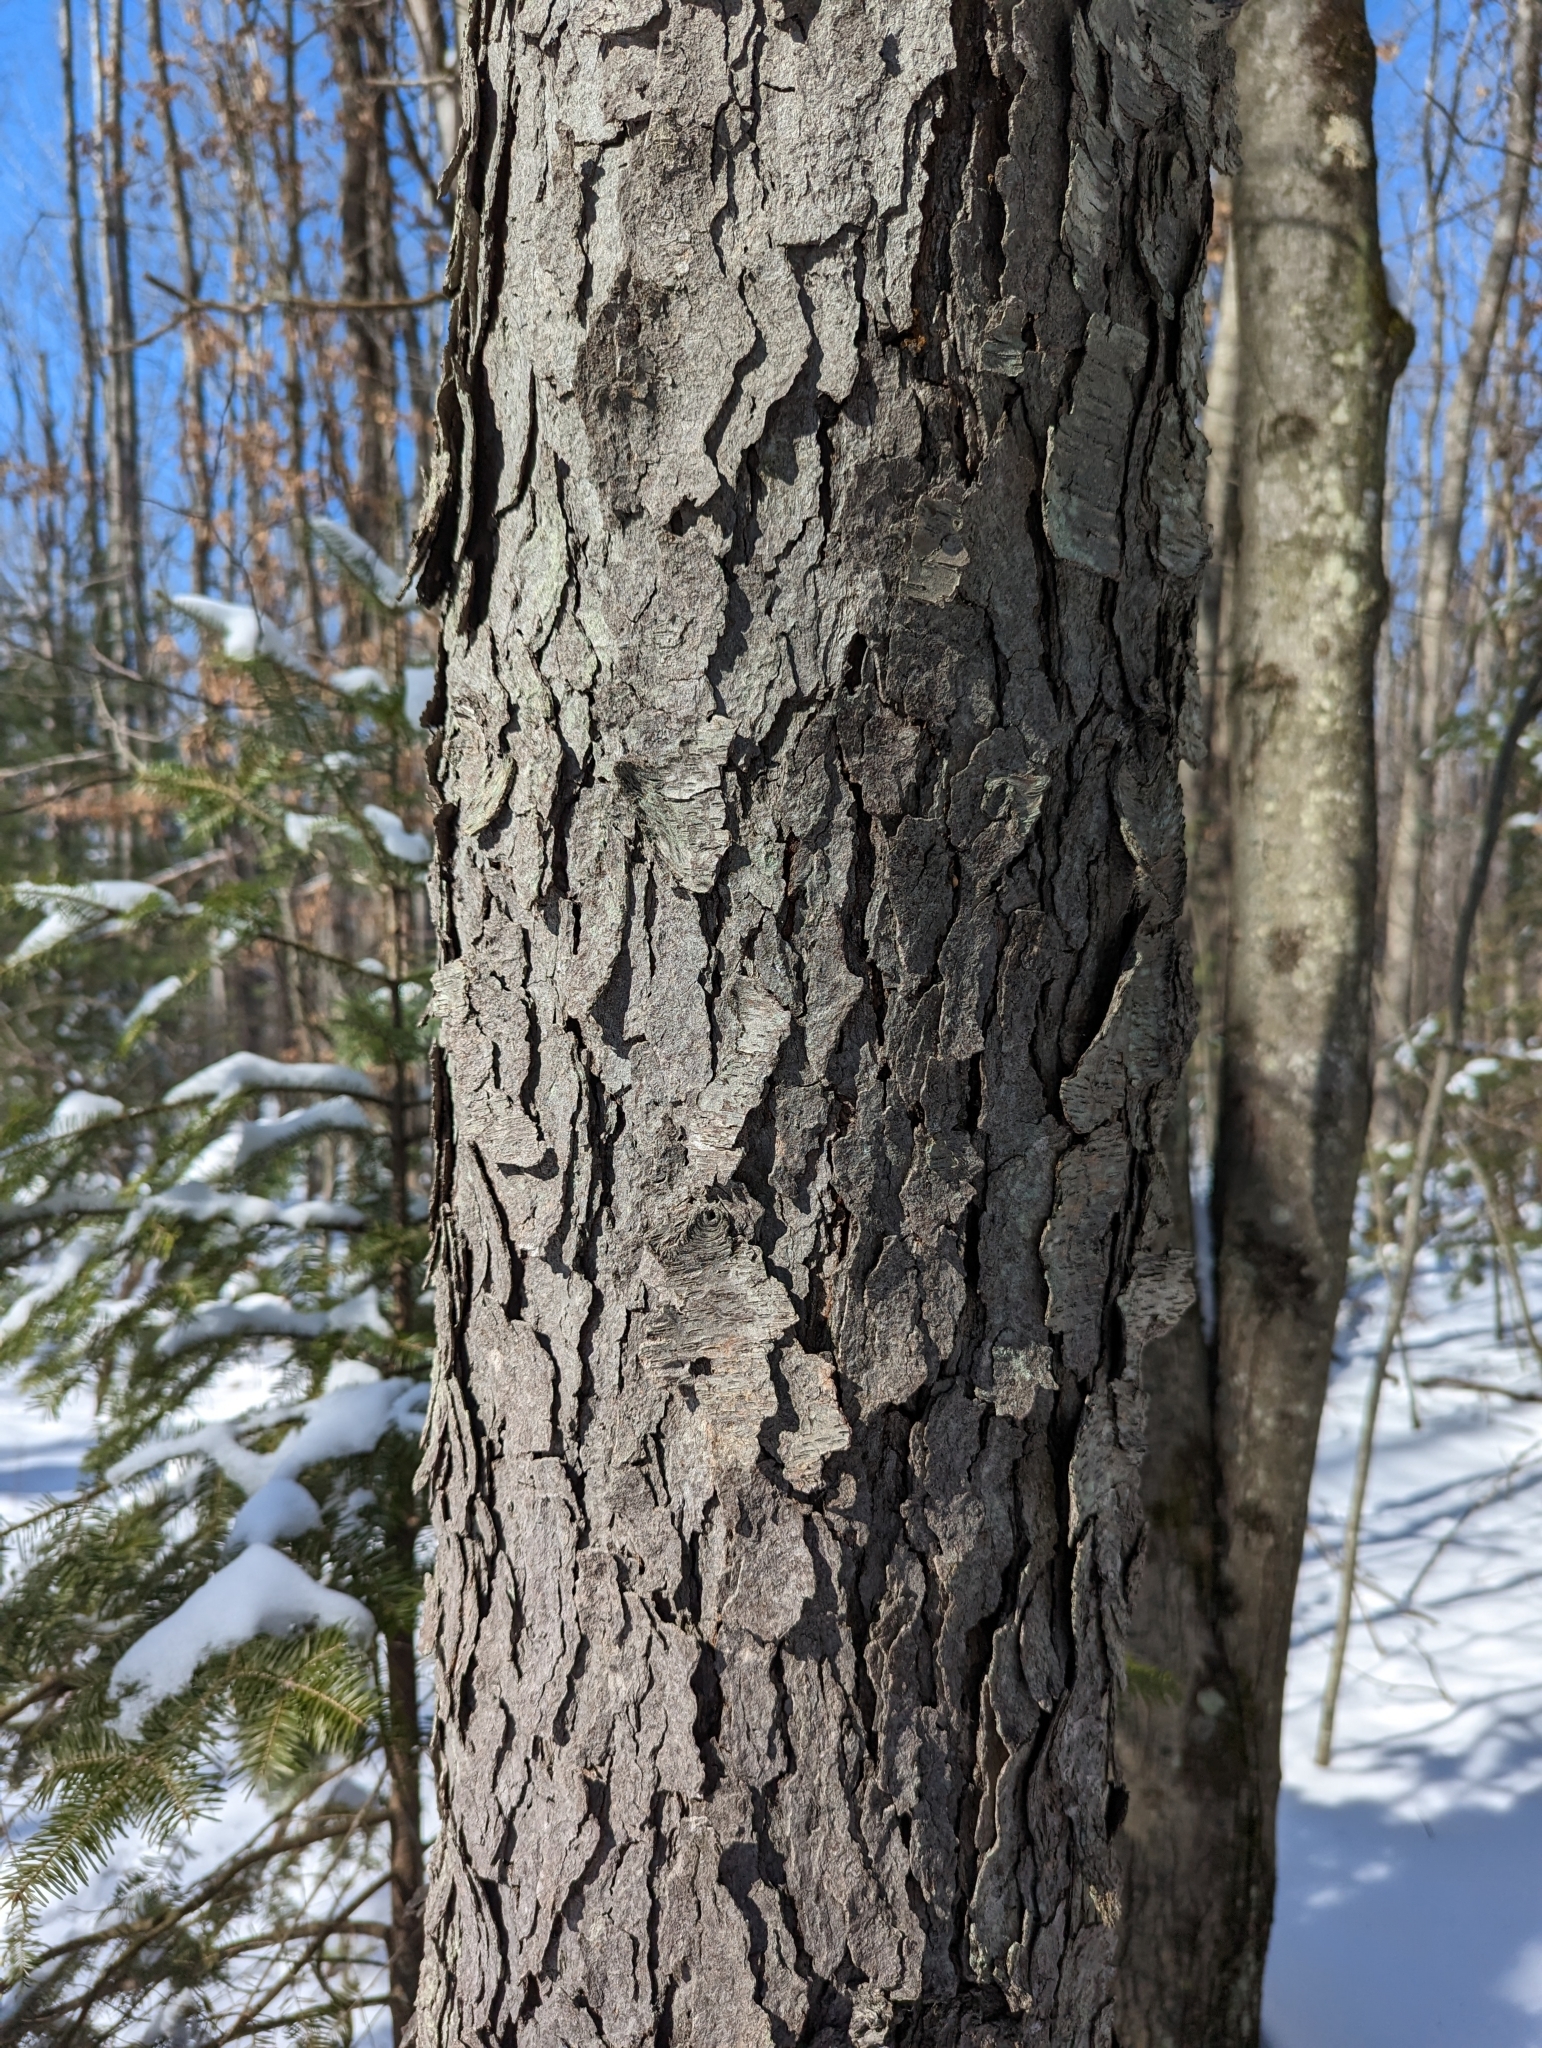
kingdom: Plantae
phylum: Tracheophyta
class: Magnoliopsida
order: Rosales
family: Rosaceae
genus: Prunus
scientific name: Prunus serotina
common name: Black cherry
